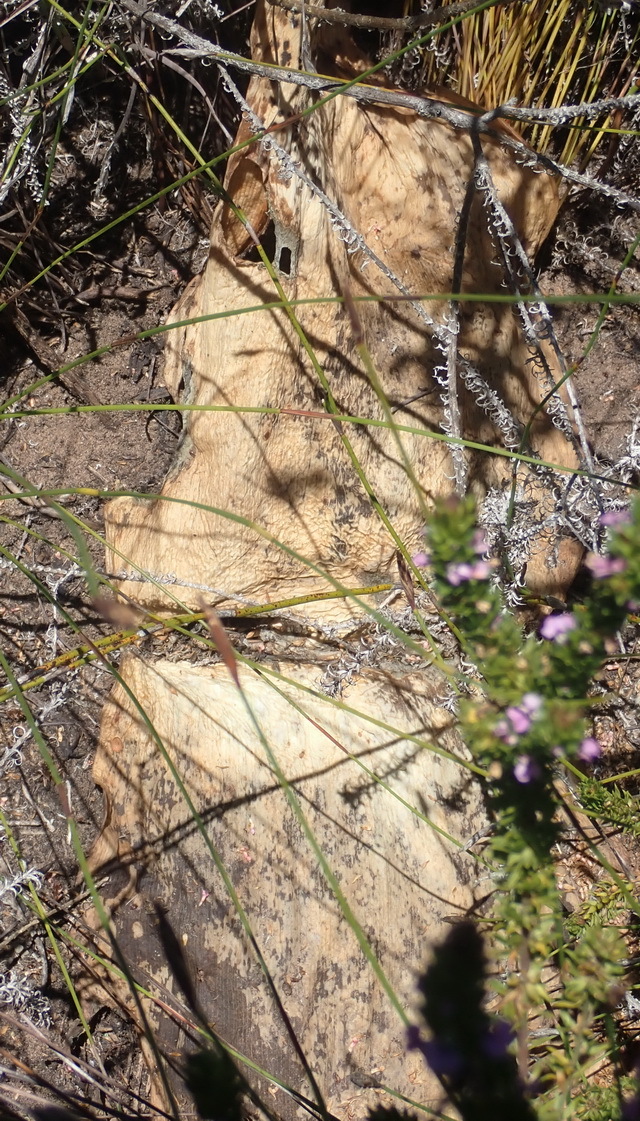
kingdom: Plantae
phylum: Tracheophyta
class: Liliopsida
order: Asparagales
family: Amaryllidaceae
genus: Haemanthus
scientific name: Haemanthus sanguineus
